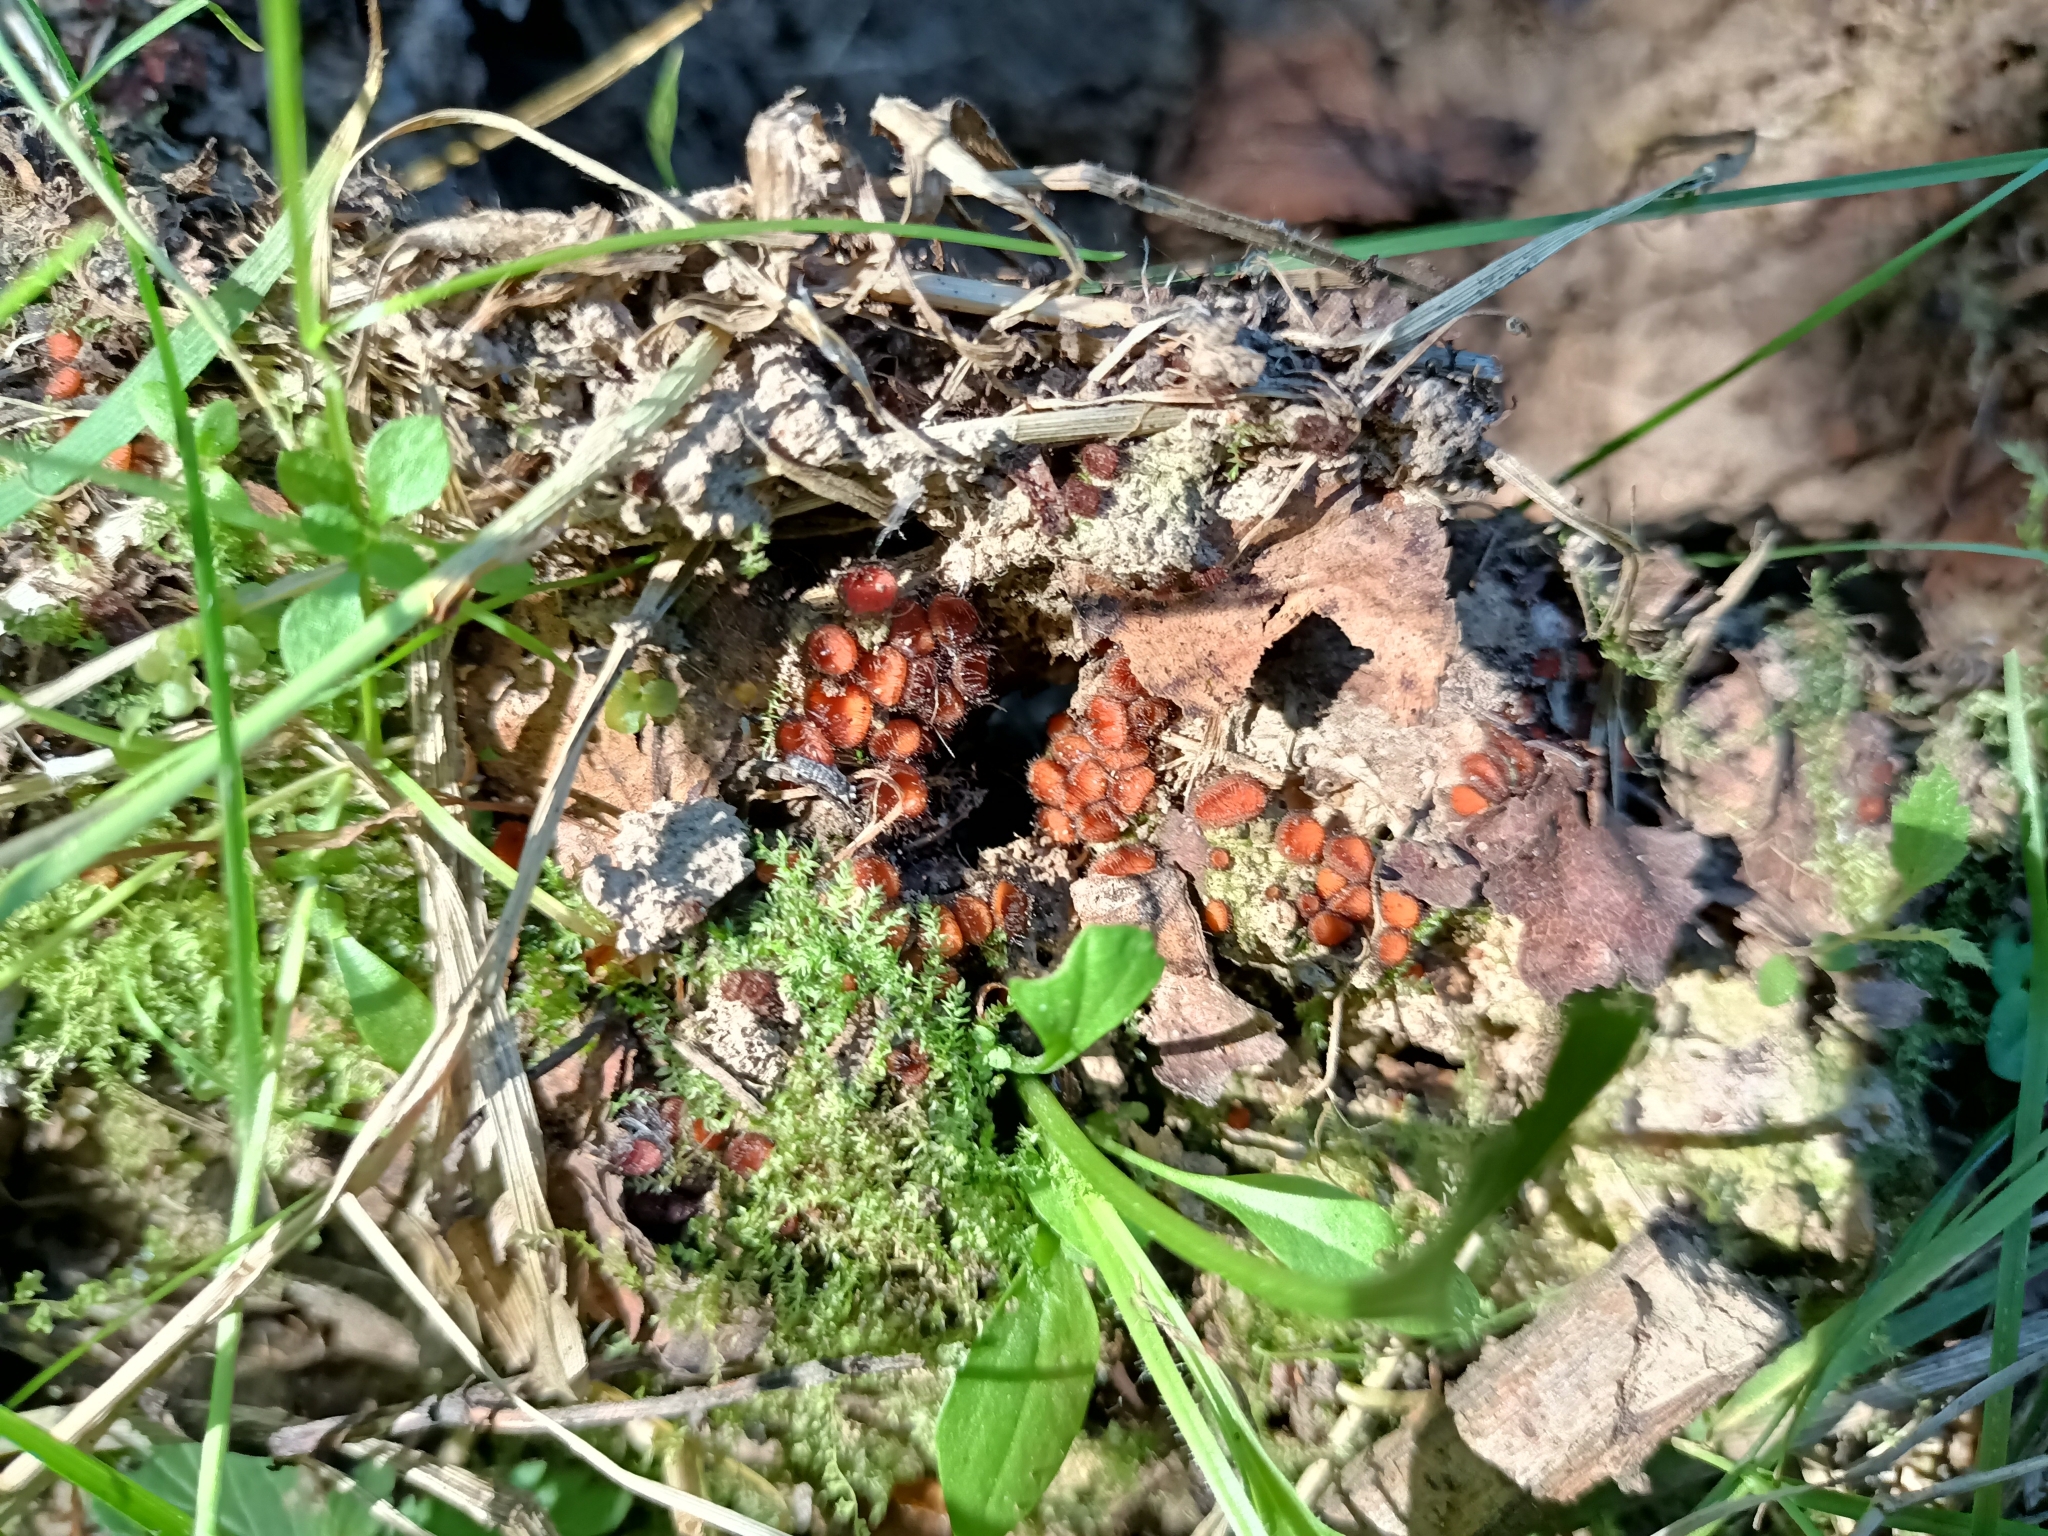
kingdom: Fungi
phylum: Ascomycota
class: Pezizomycetes
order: Pezizales
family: Pyronemataceae
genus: Scutellinia
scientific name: Scutellinia
